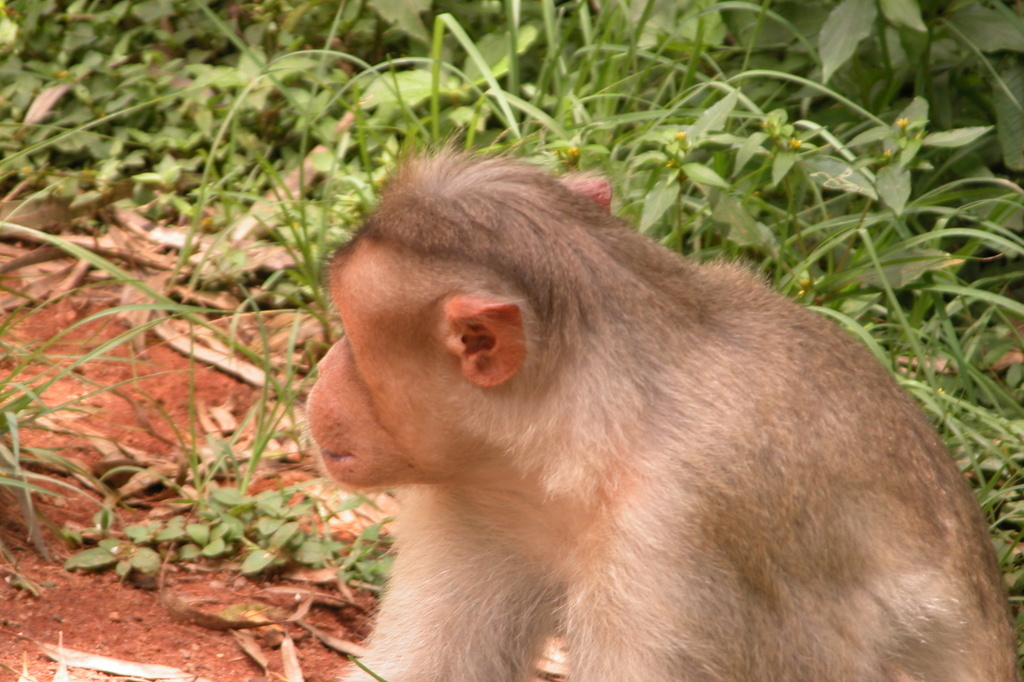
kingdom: Animalia
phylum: Chordata
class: Mammalia
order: Primates
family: Cercopithecidae
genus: Macaca
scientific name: Macaca radiata
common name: Bonnet macaque
